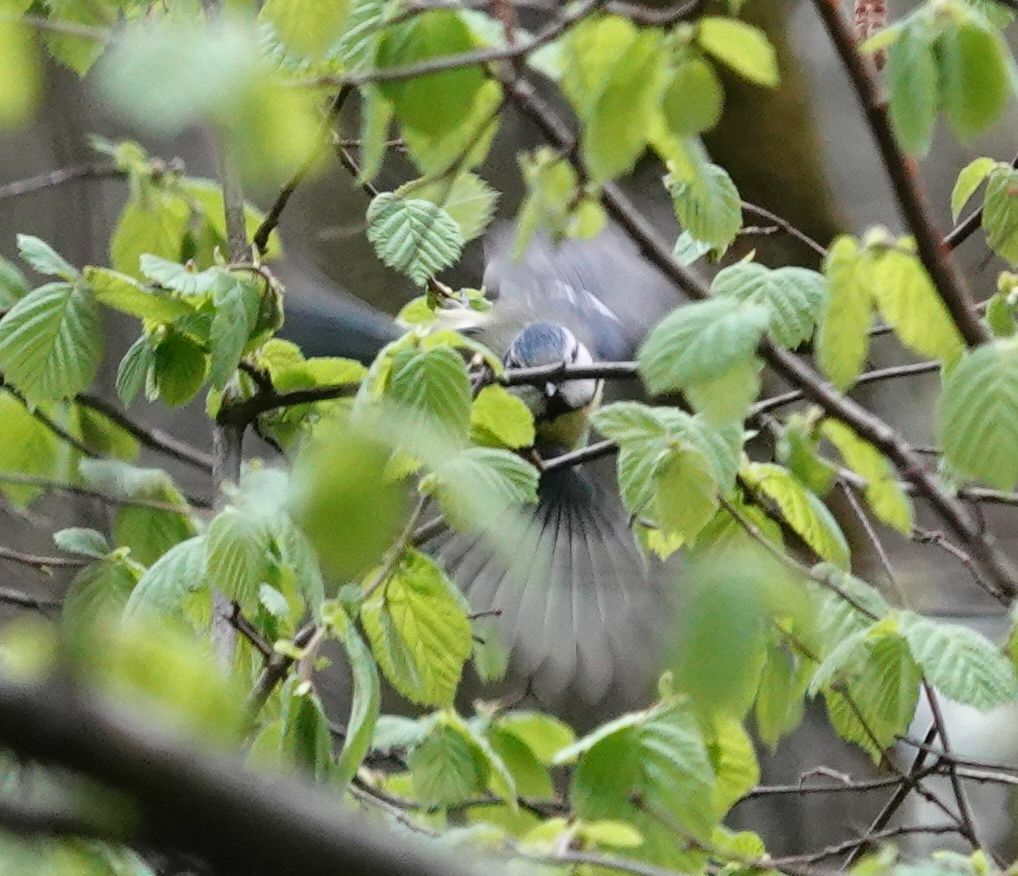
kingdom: Animalia
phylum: Chordata
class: Aves
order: Passeriformes
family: Paridae
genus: Cyanistes
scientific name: Cyanistes caeruleus
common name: Eurasian blue tit
